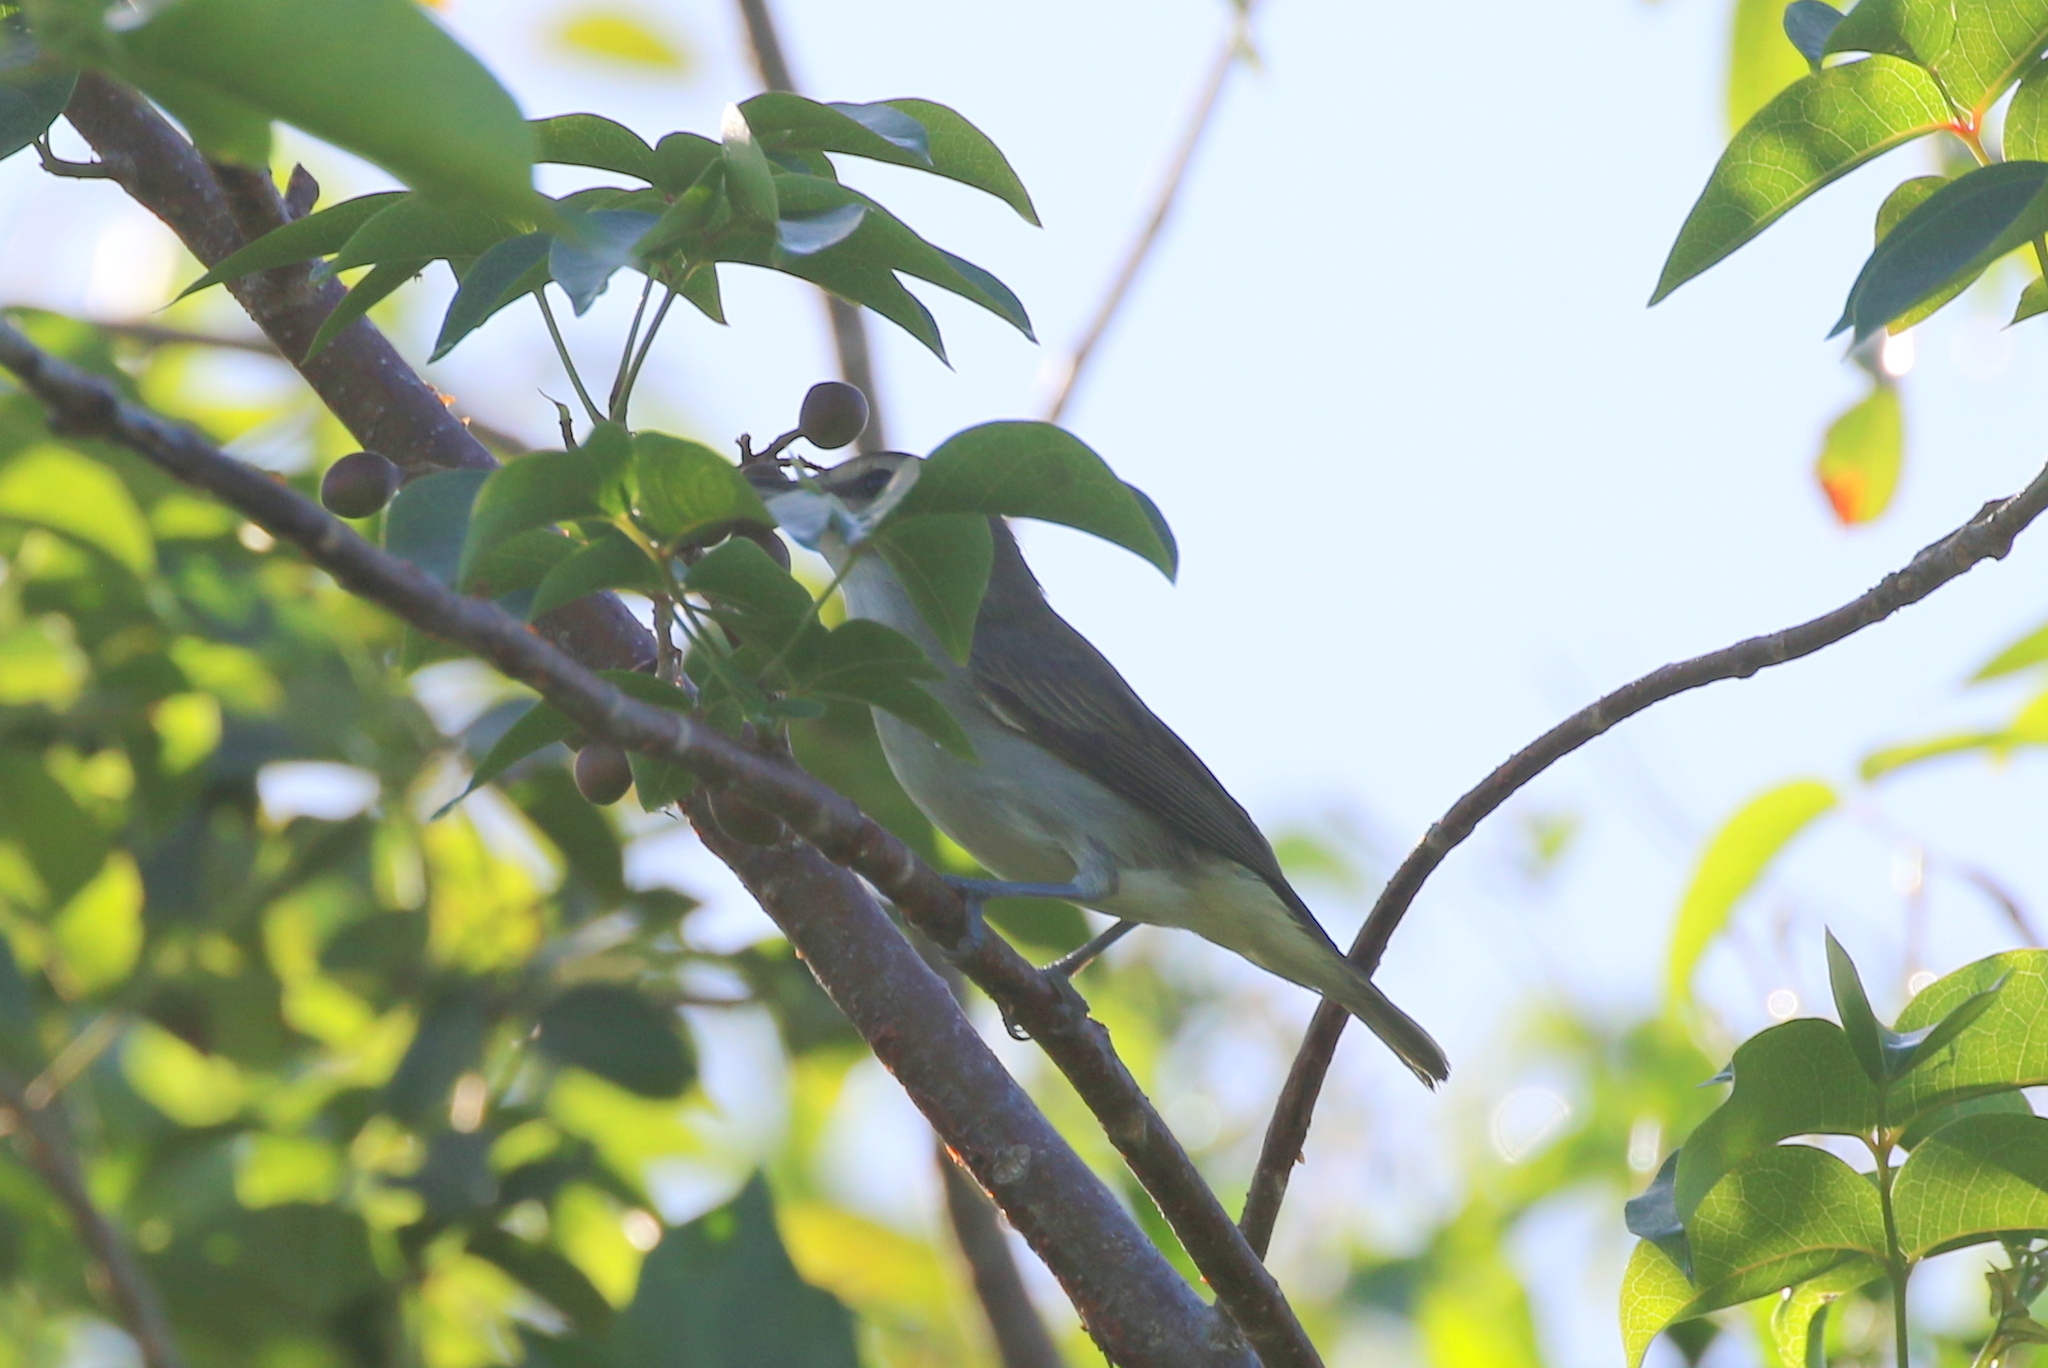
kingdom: Animalia
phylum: Chordata
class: Aves
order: Passeriformes
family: Vireonidae
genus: Vireo
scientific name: Vireo altiloquus
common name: Black-whiskered vireo
